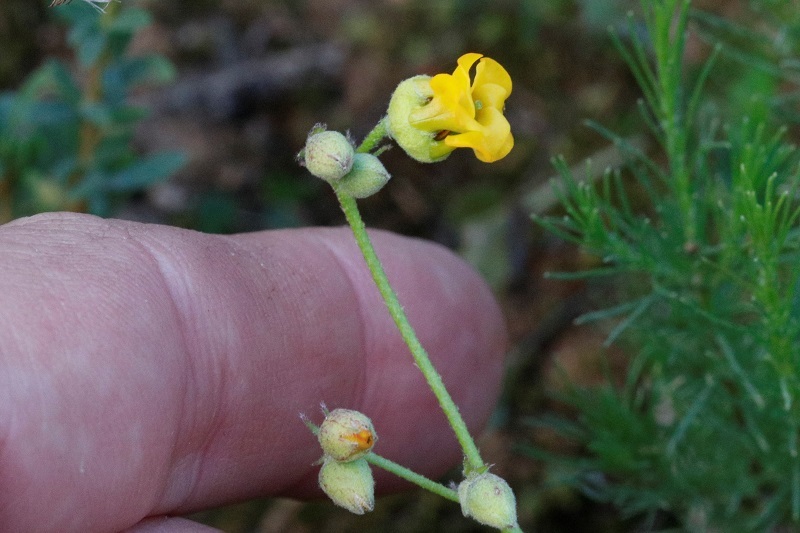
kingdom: Plantae
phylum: Tracheophyta
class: Magnoliopsida
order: Malvales
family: Malvaceae
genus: Hermannia
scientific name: Hermannia althaeoides
